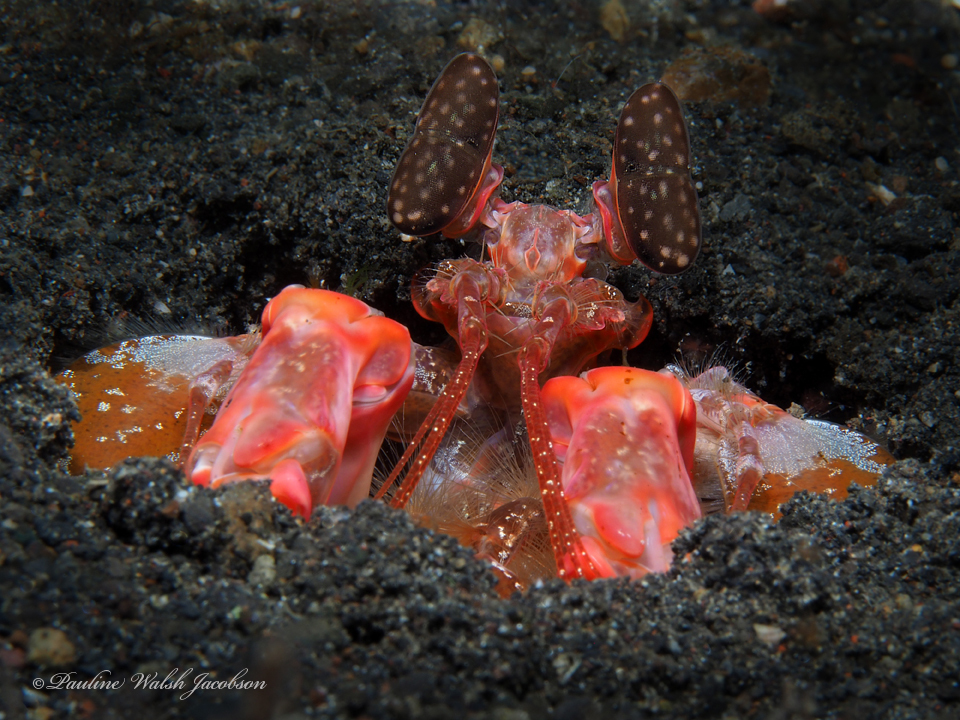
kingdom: Animalia
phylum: Arthropoda
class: Malacostraca
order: Stomatopoda
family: Lysiosquillidae
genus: Lysiosquilla
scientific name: Lysiosquilla lisa
